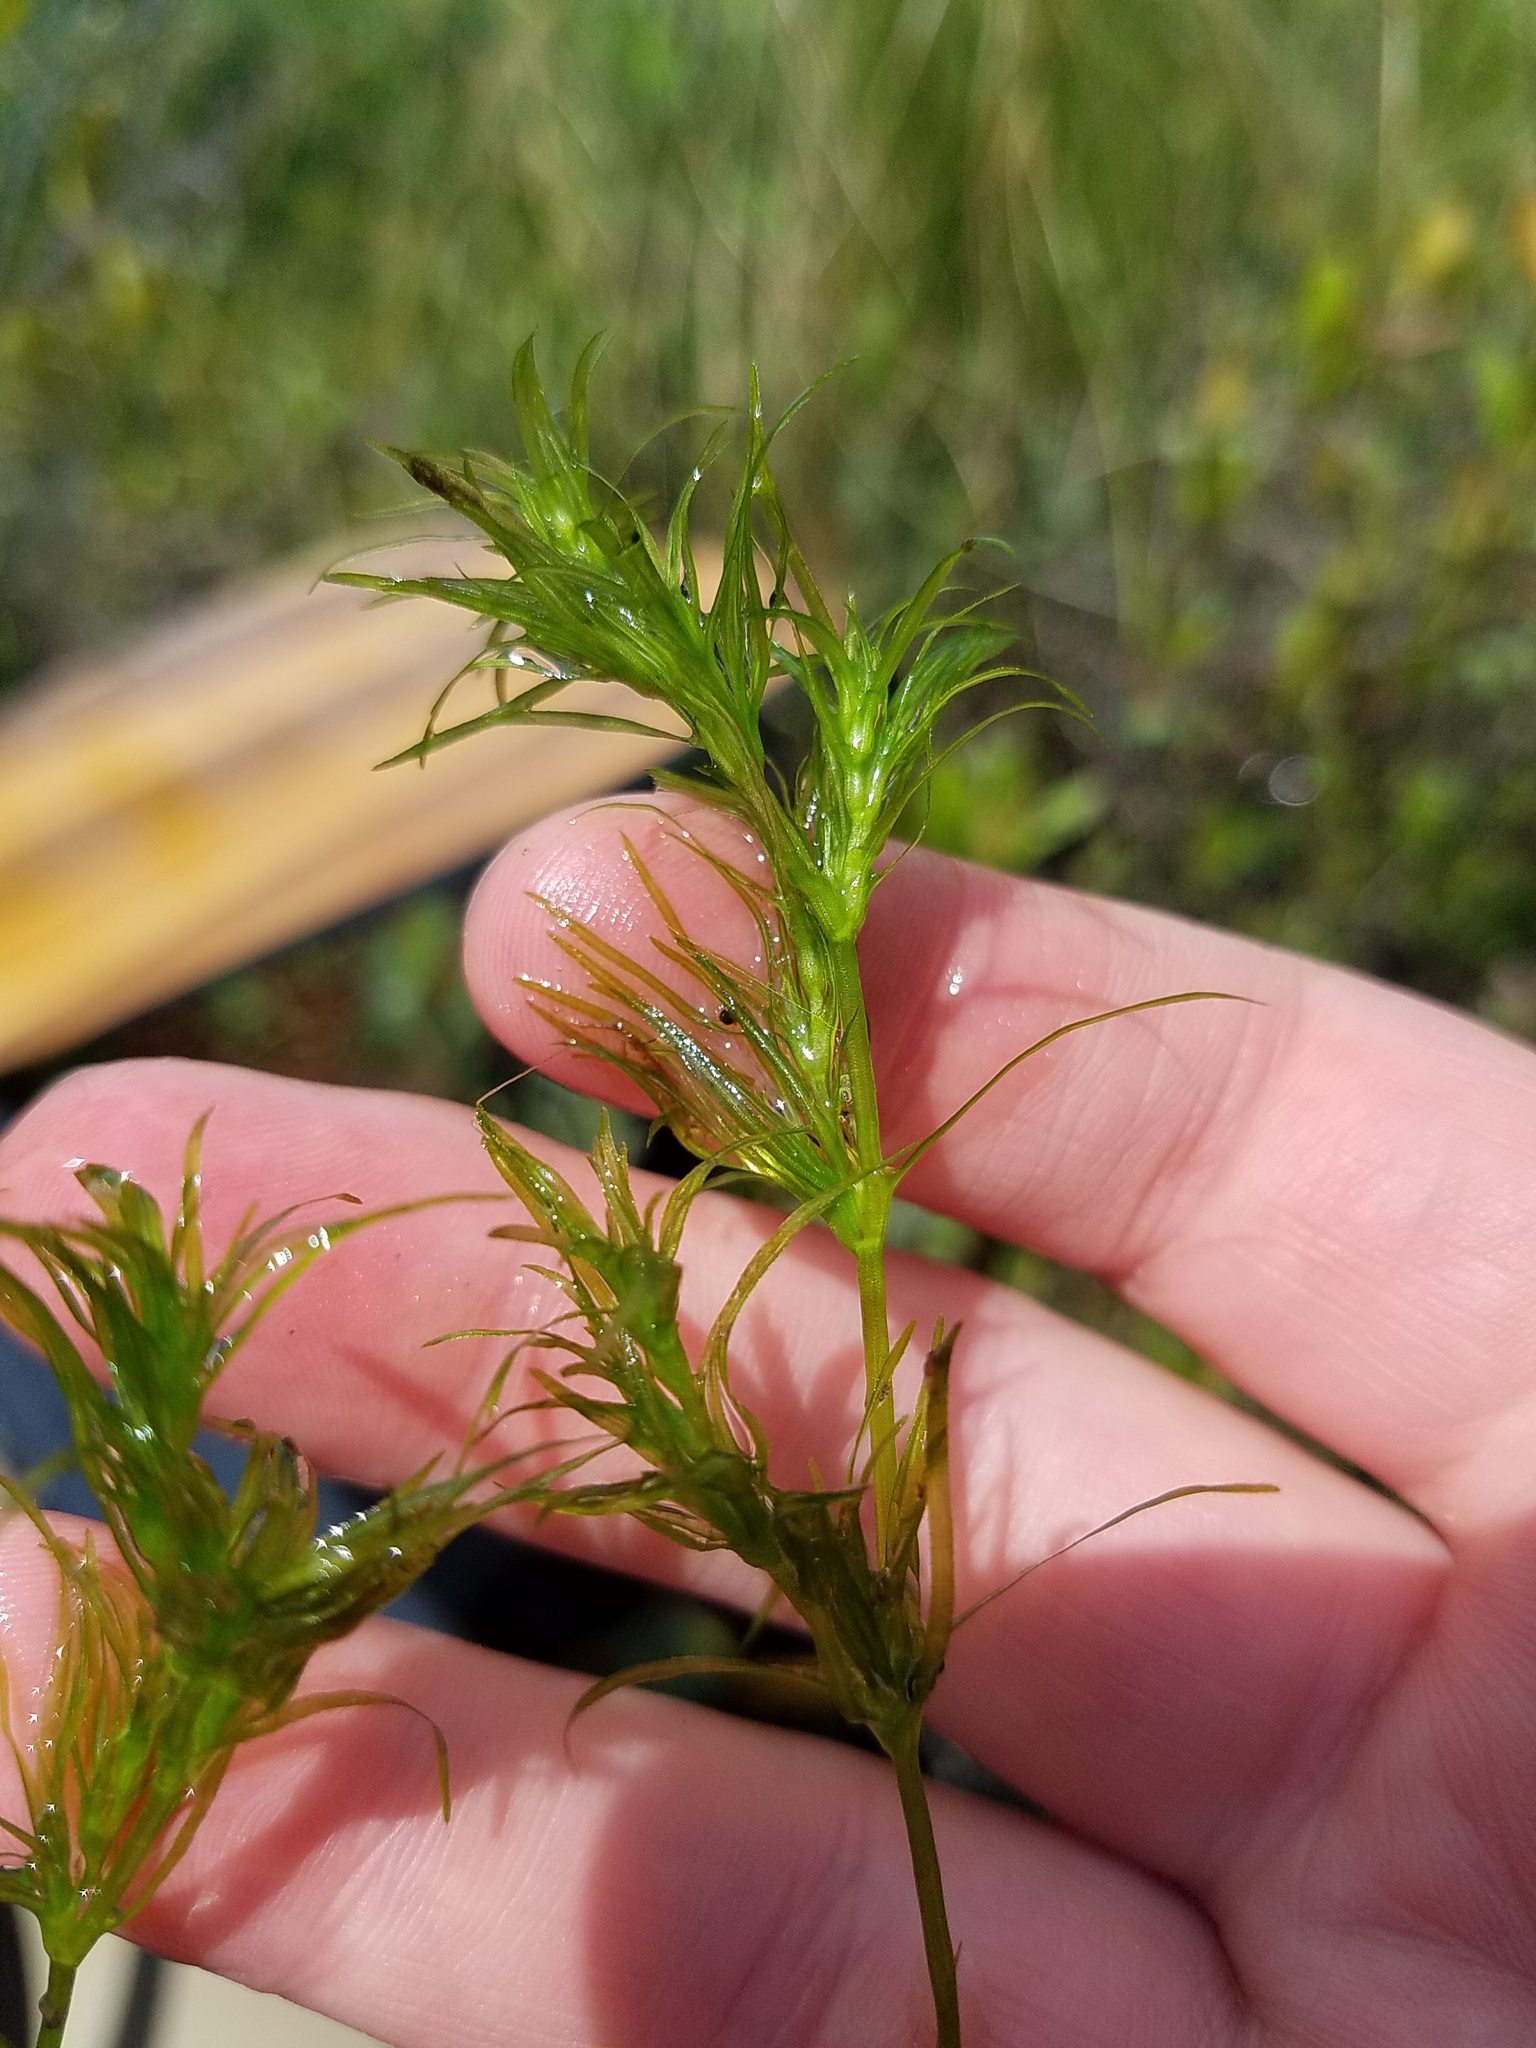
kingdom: Plantae
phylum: Tracheophyta
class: Liliopsida
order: Alismatales
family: Hydrocharitaceae
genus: Najas
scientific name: Najas flexilis
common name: Slender naiad
